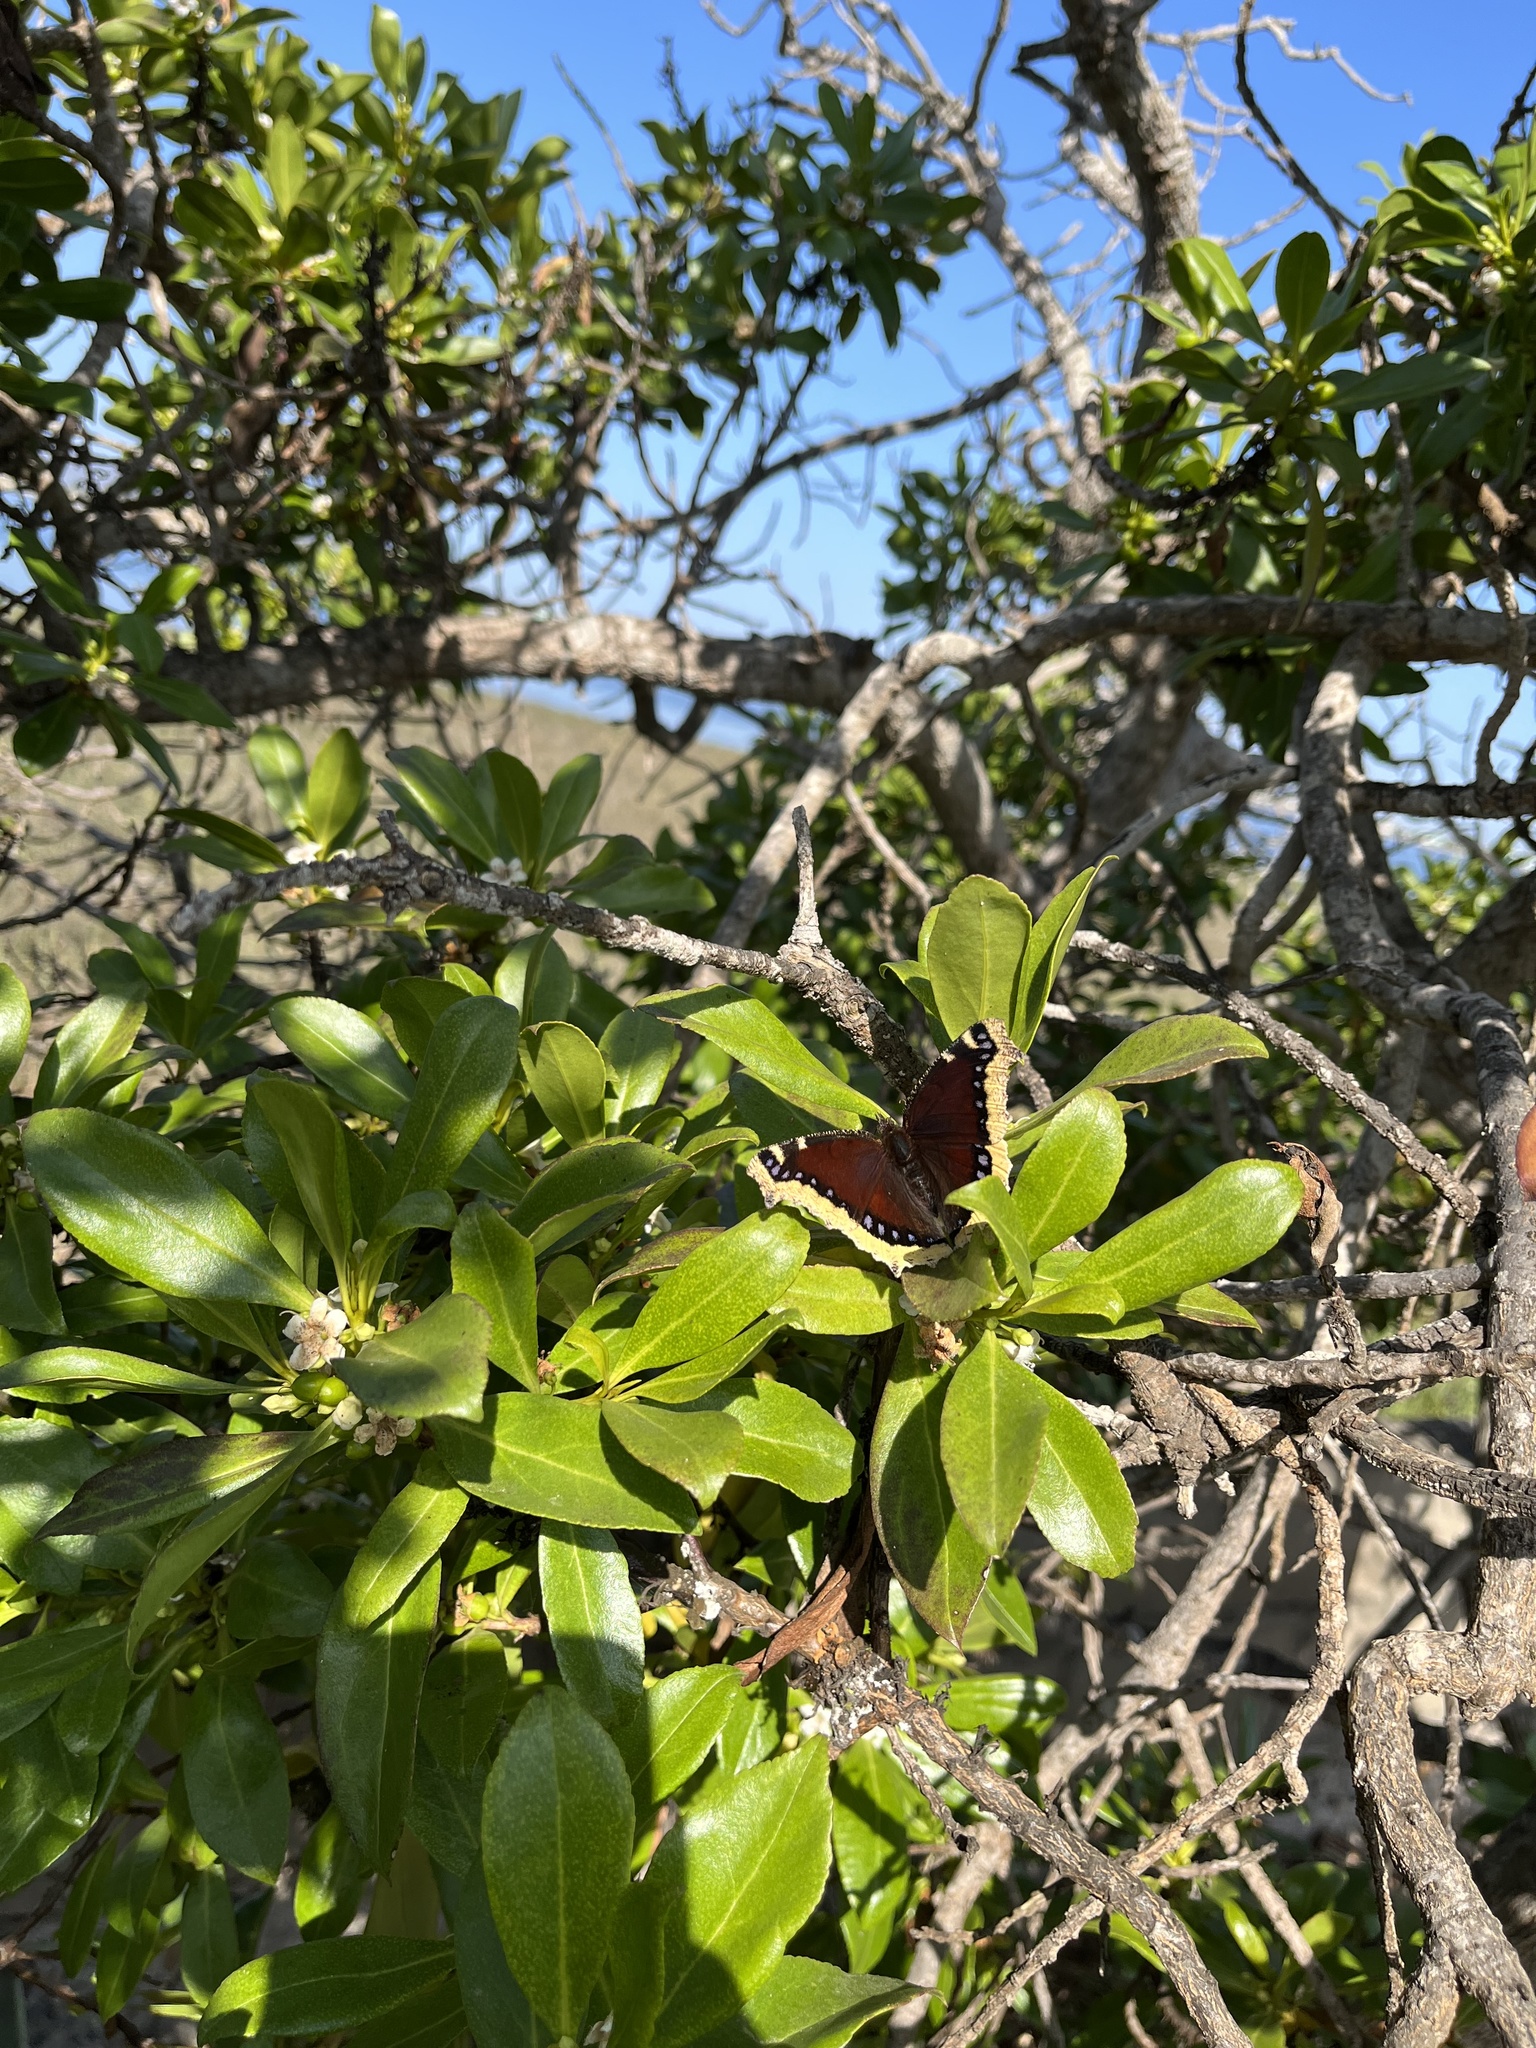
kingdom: Animalia
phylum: Arthropoda
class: Insecta
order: Lepidoptera
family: Nymphalidae
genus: Nymphalis
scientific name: Nymphalis antiopa
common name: Camberwell beauty
